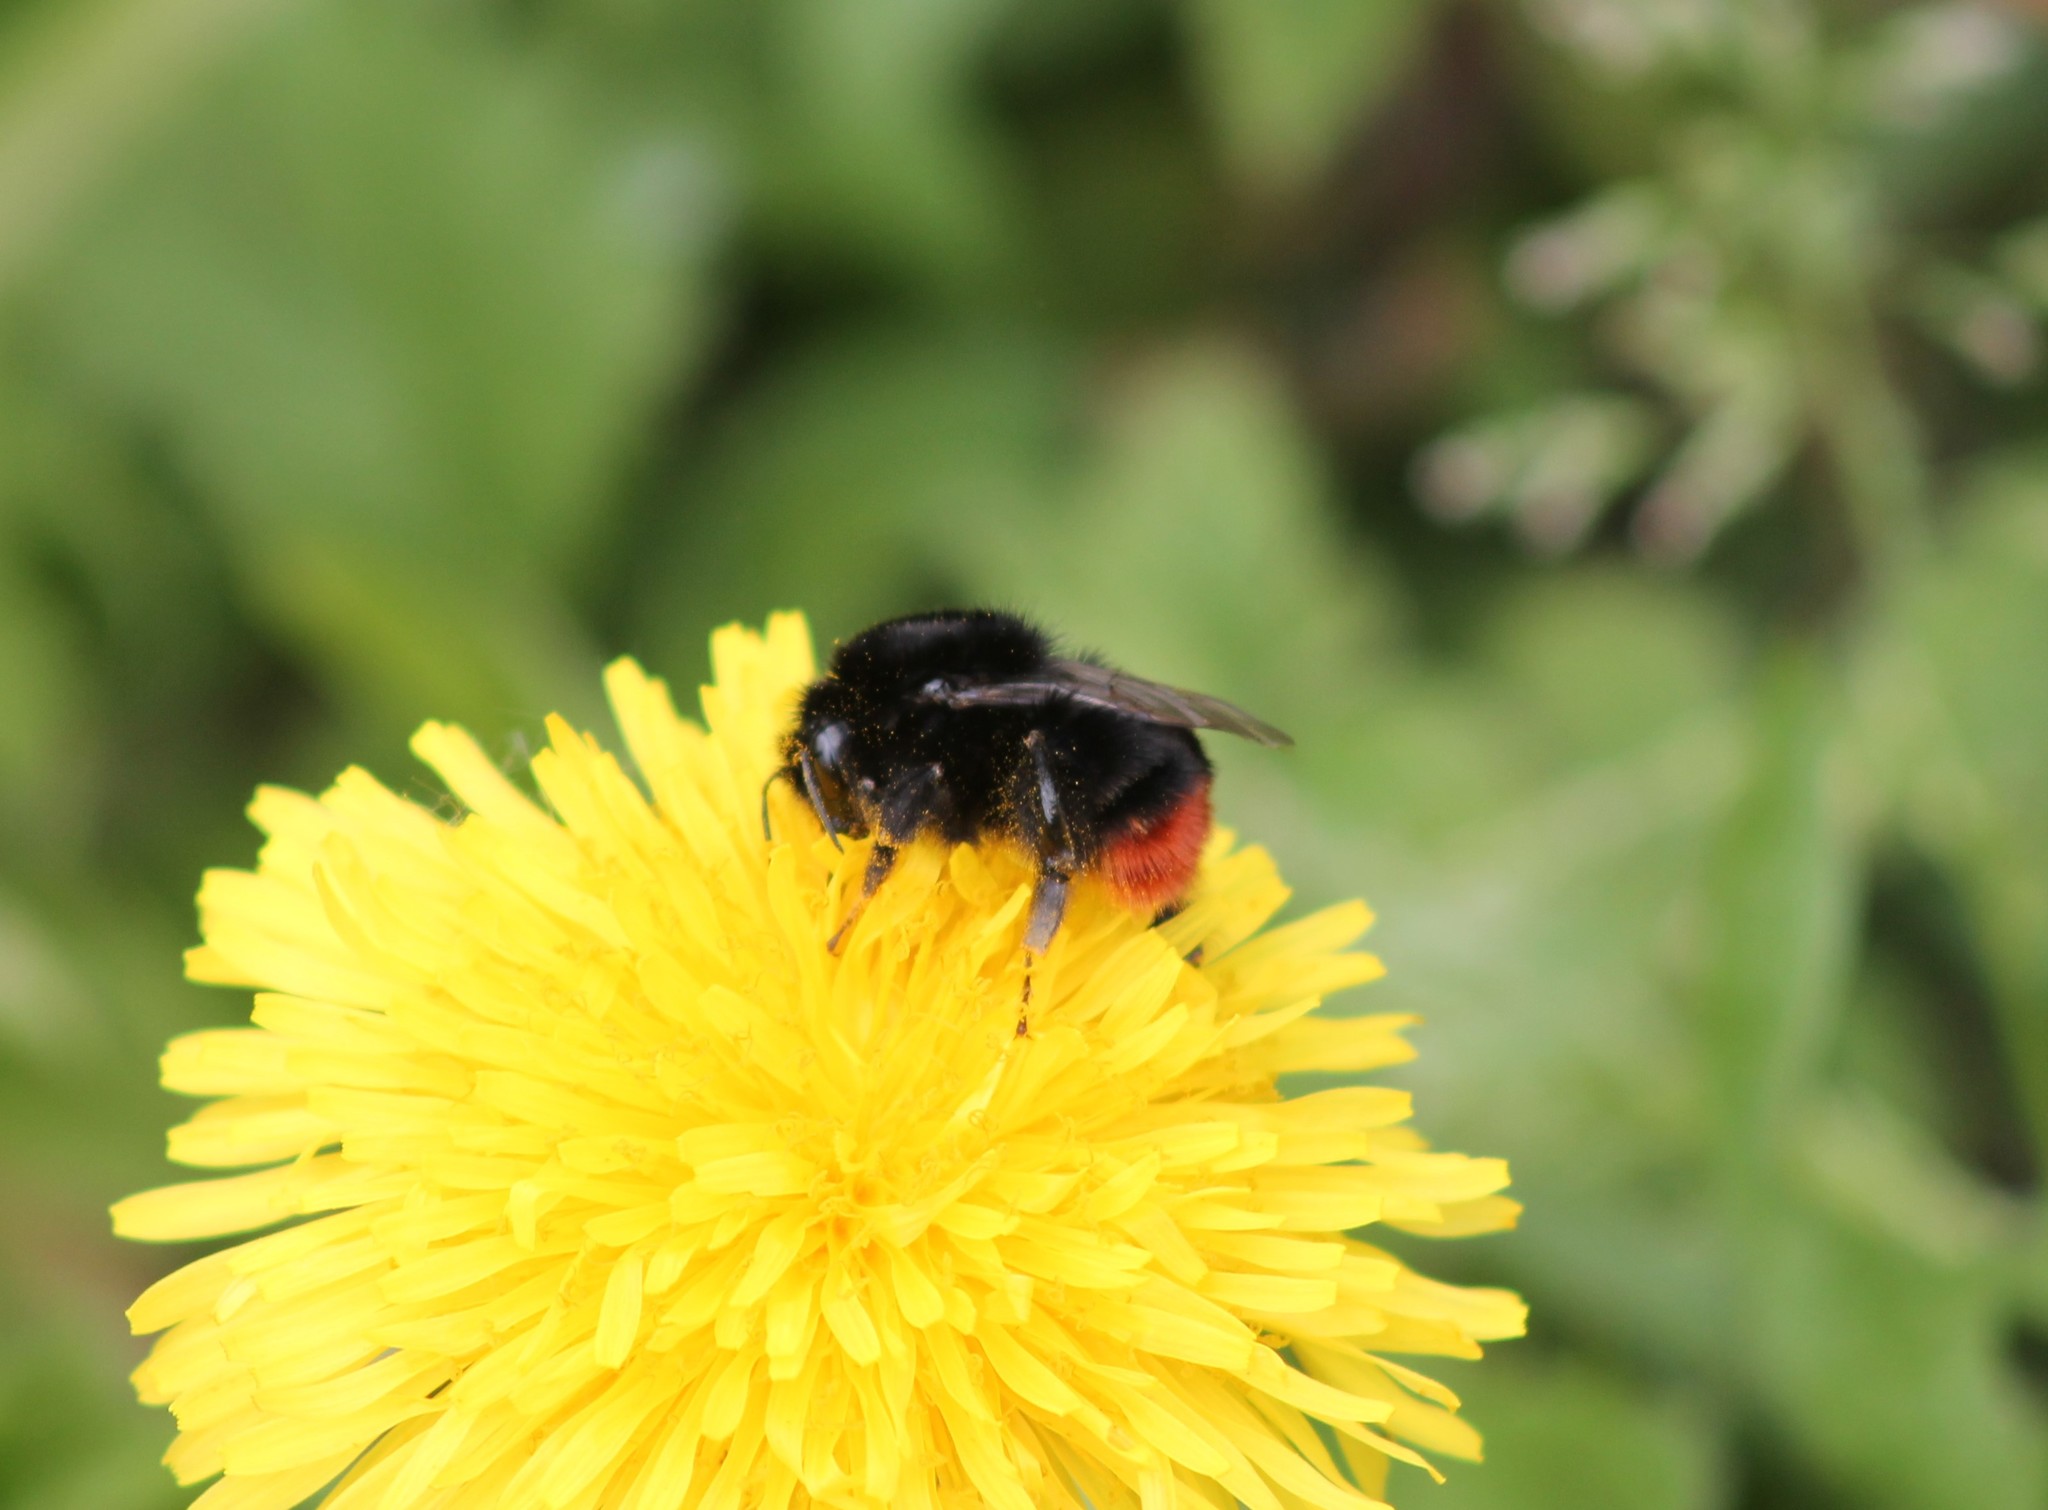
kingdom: Animalia
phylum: Arthropoda
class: Insecta
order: Hymenoptera
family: Apidae
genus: Bombus
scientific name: Bombus lapidarius
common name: Large red-tailed humble-bee
